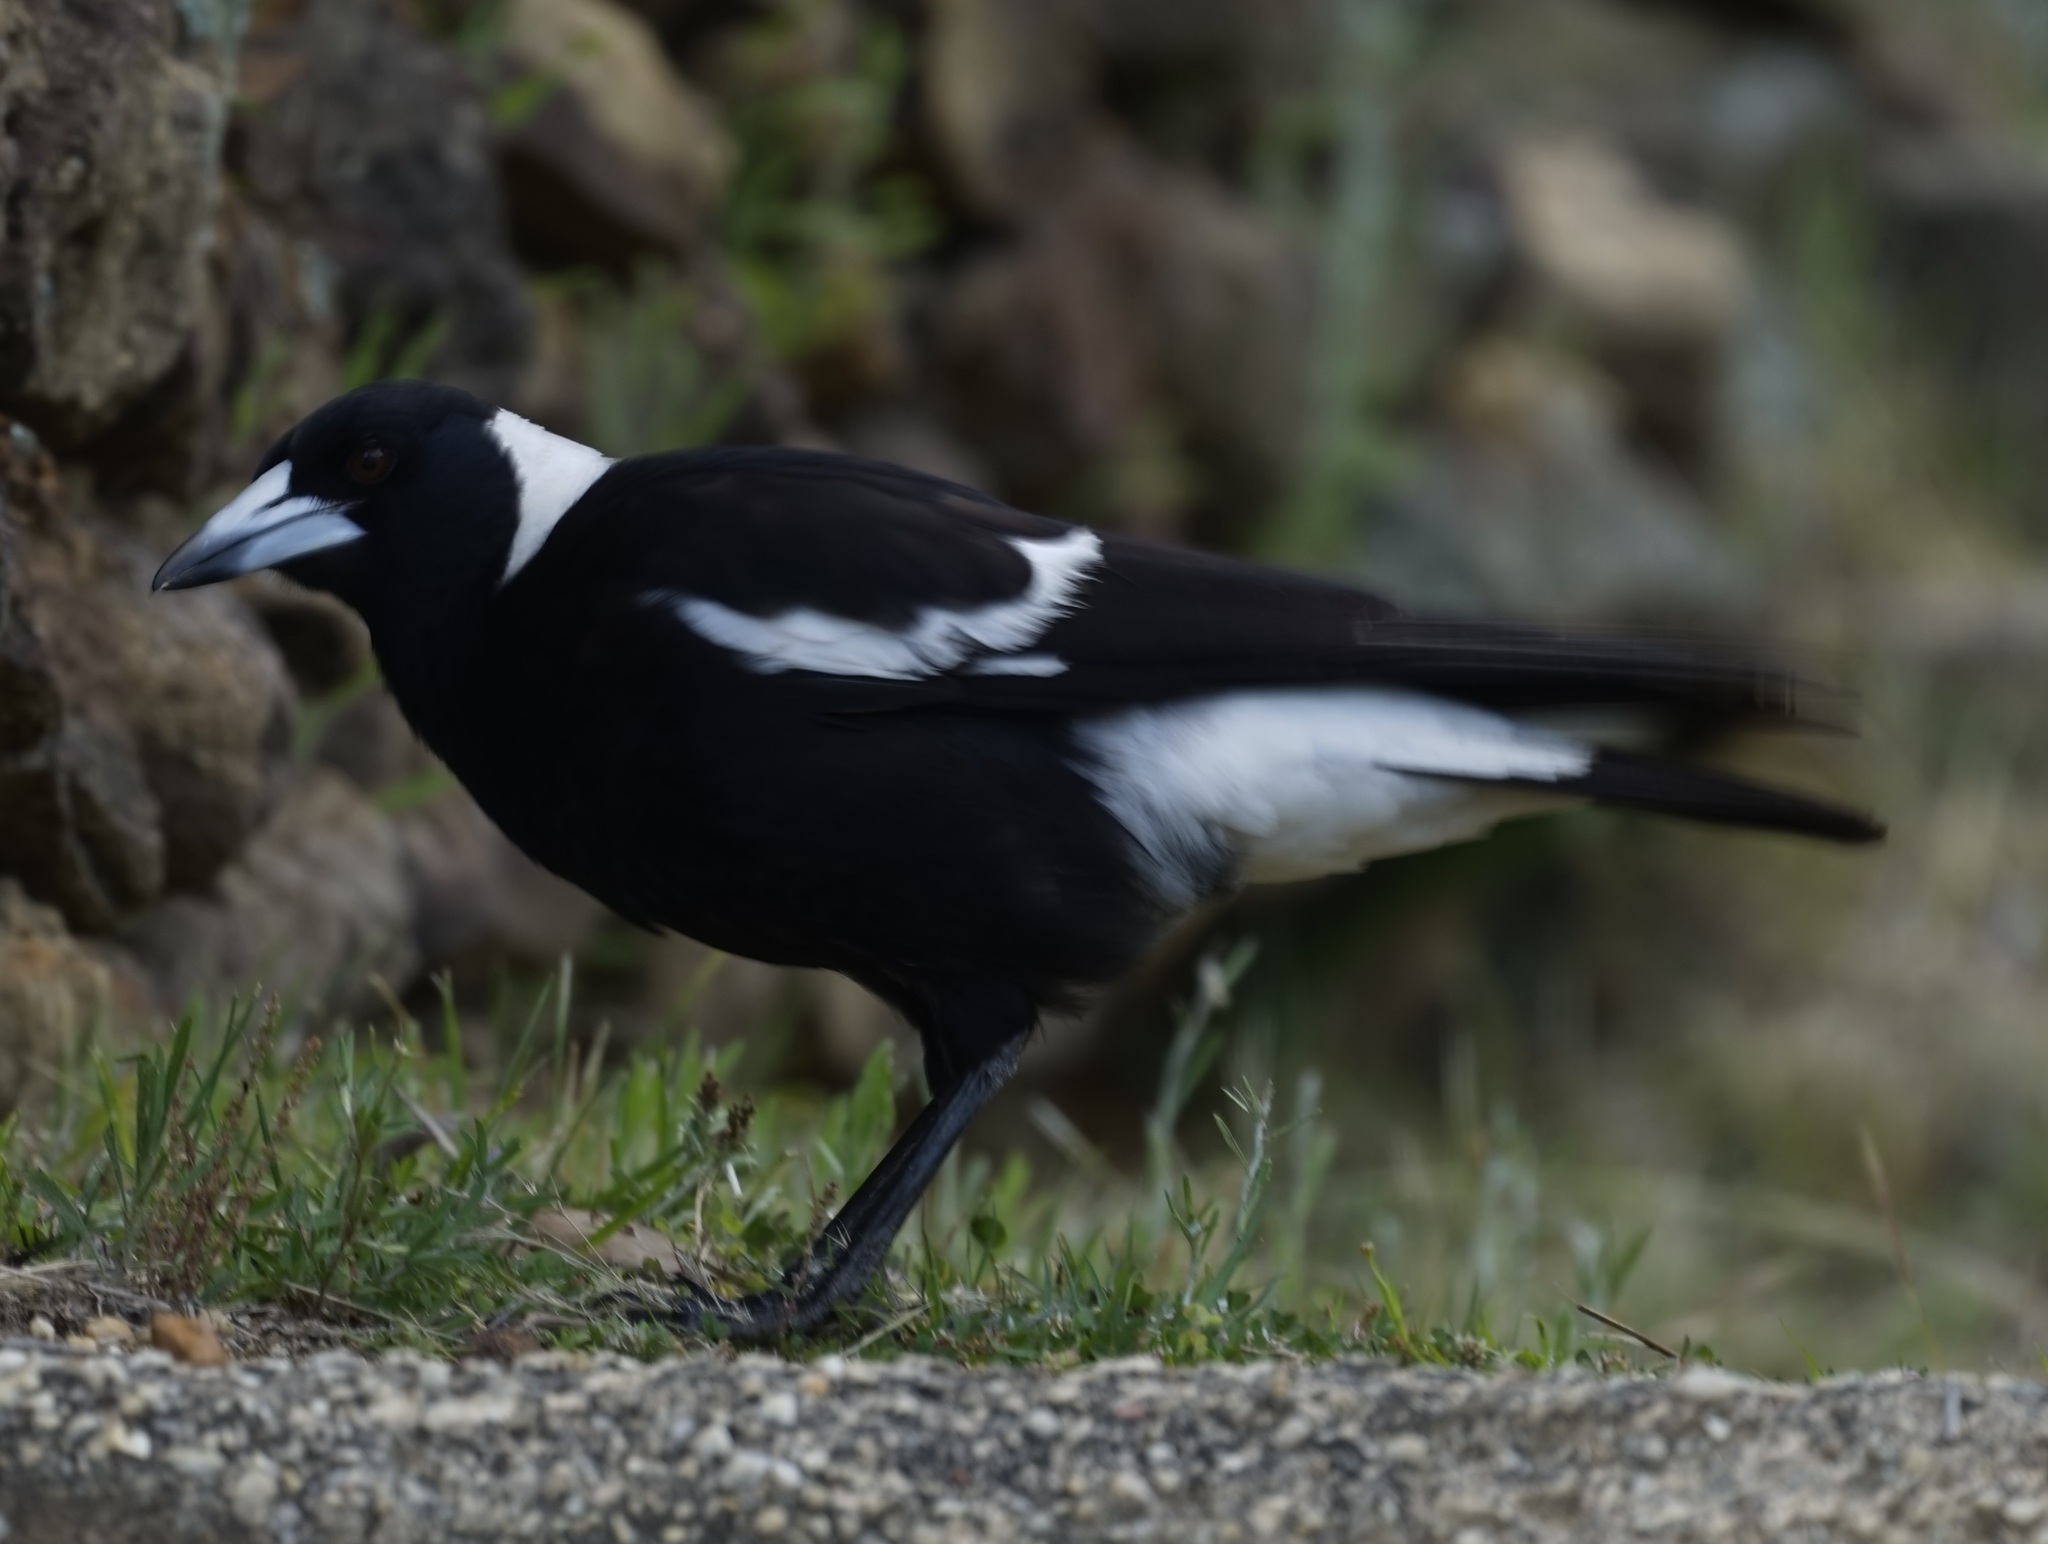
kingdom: Animalia
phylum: Chordata
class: Aves
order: Passeriformes
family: Cracticidae
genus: Gymnorhina
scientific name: Gymnorhina tibicen
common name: Australian magpie
